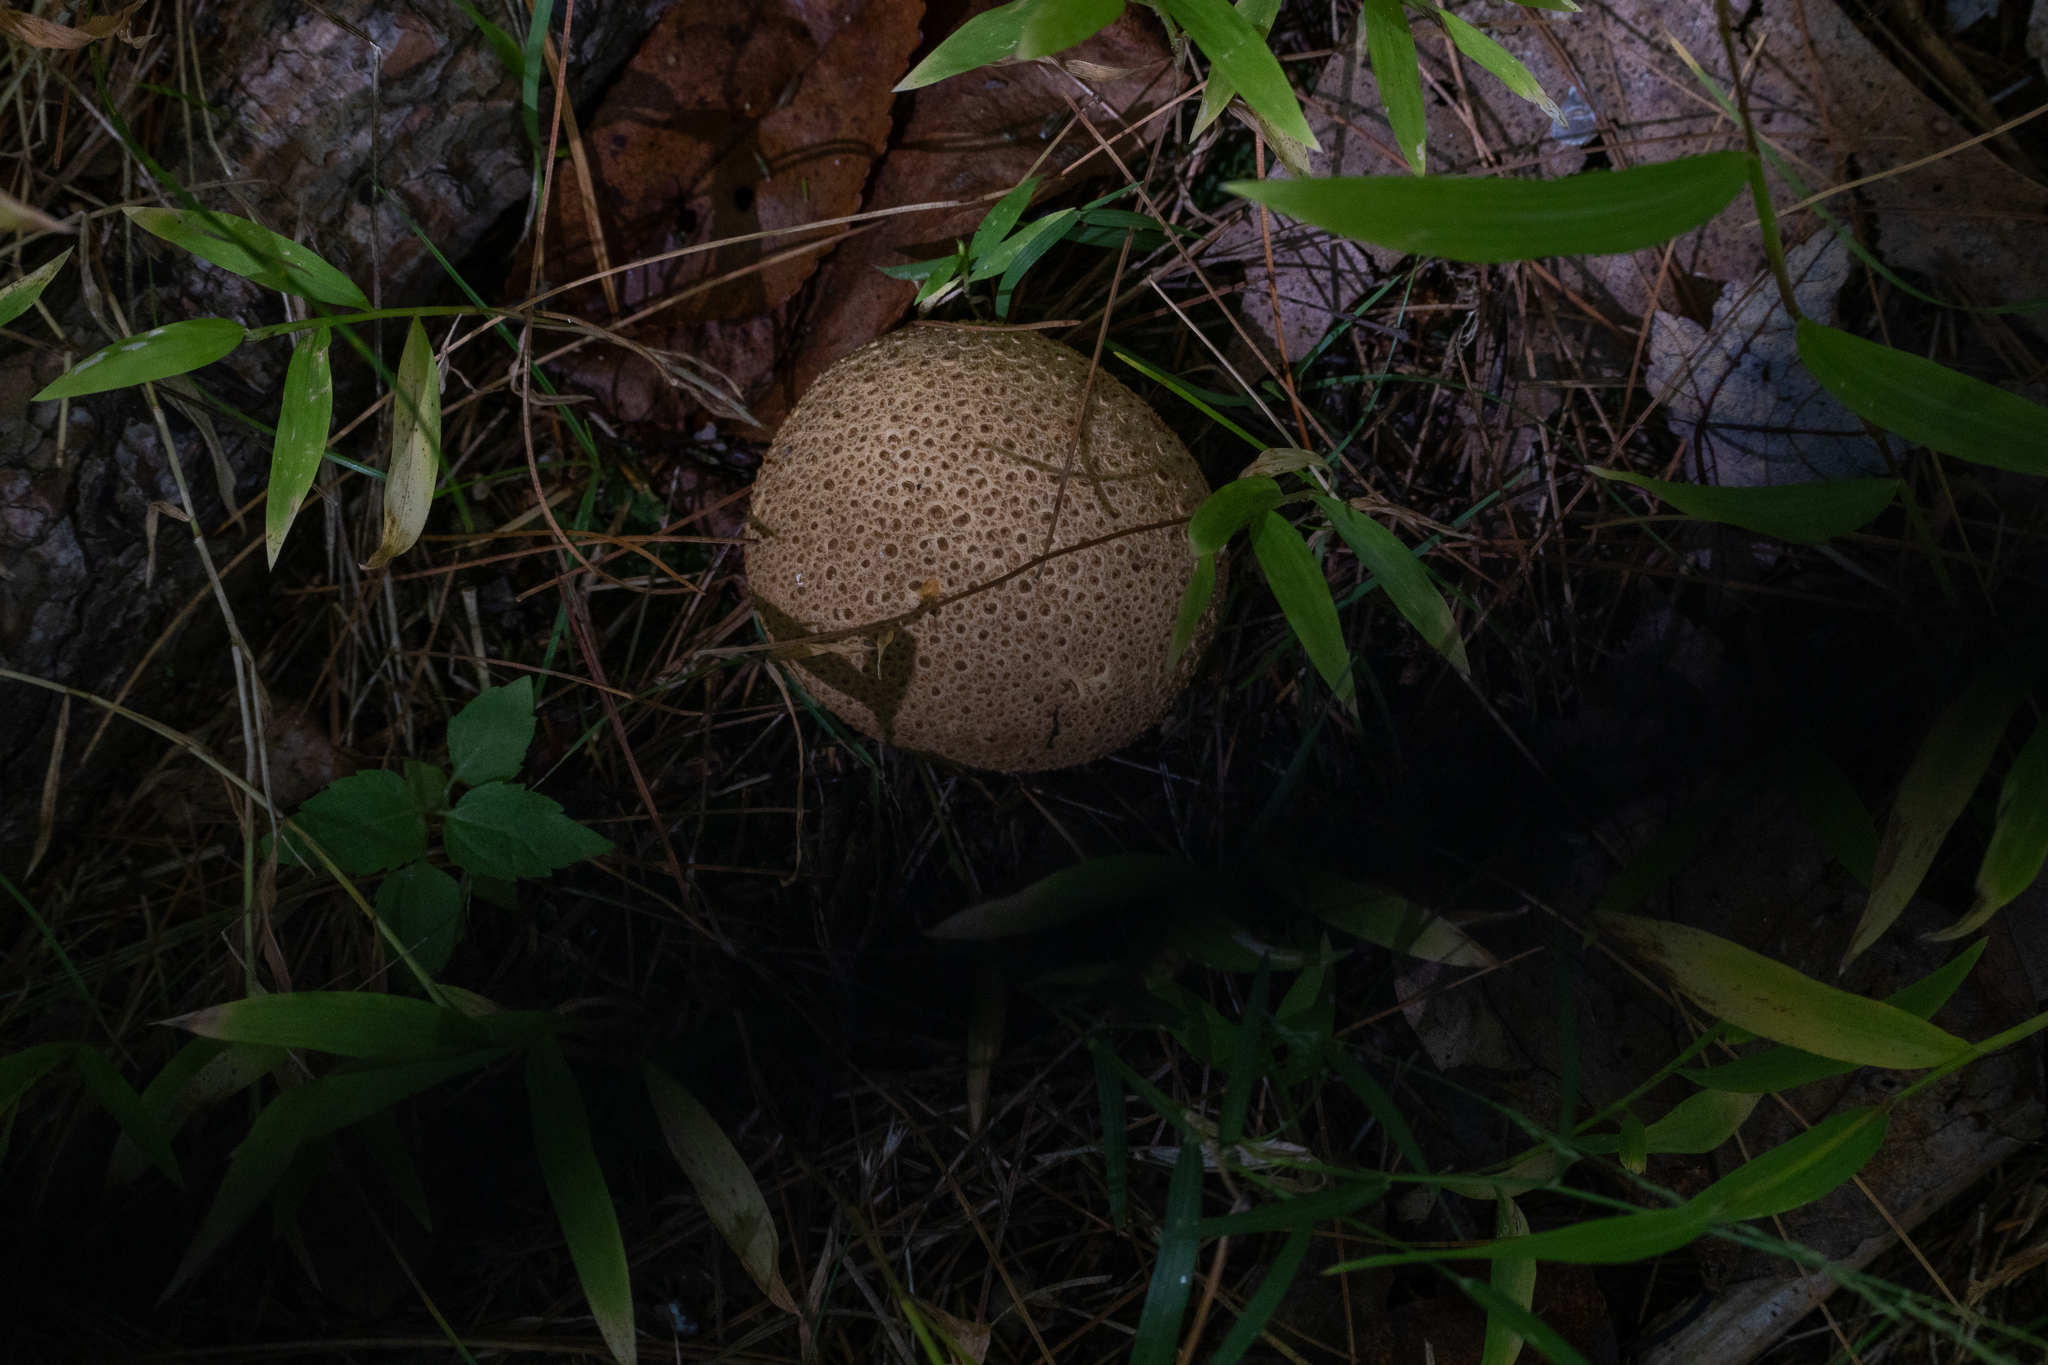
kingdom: Fungi
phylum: Basidiomycota
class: Agaricomycetes
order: Boletales
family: Sclerodermataceae
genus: Scleroderma
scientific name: Scleroderma citrinum
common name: Common earthball
